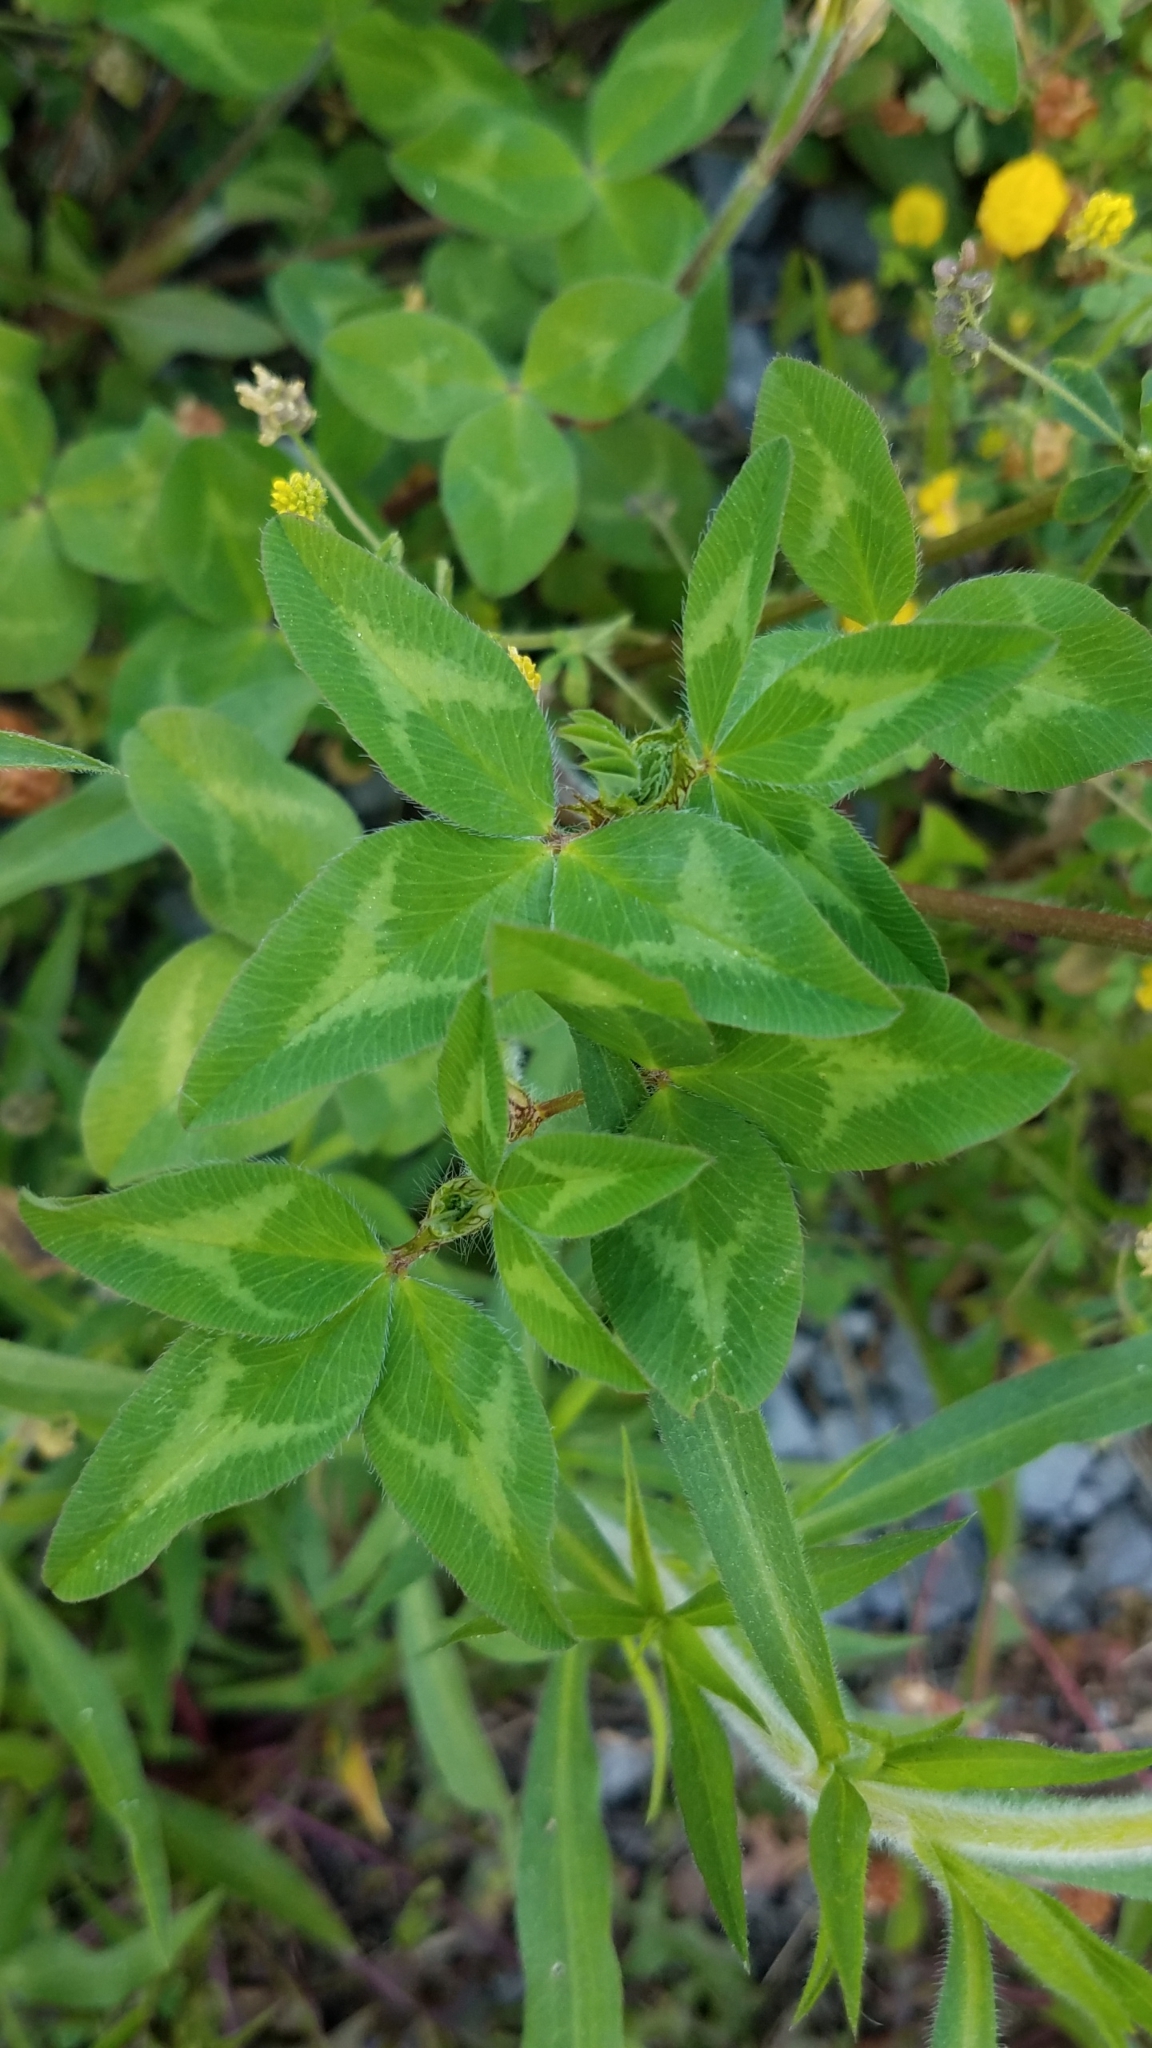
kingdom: Plantae
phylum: Tracheophyta
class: Magnoliopsida
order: Fabales
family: Fabaceae
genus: Trifolium
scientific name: Trifolium pratense
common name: Red clover
